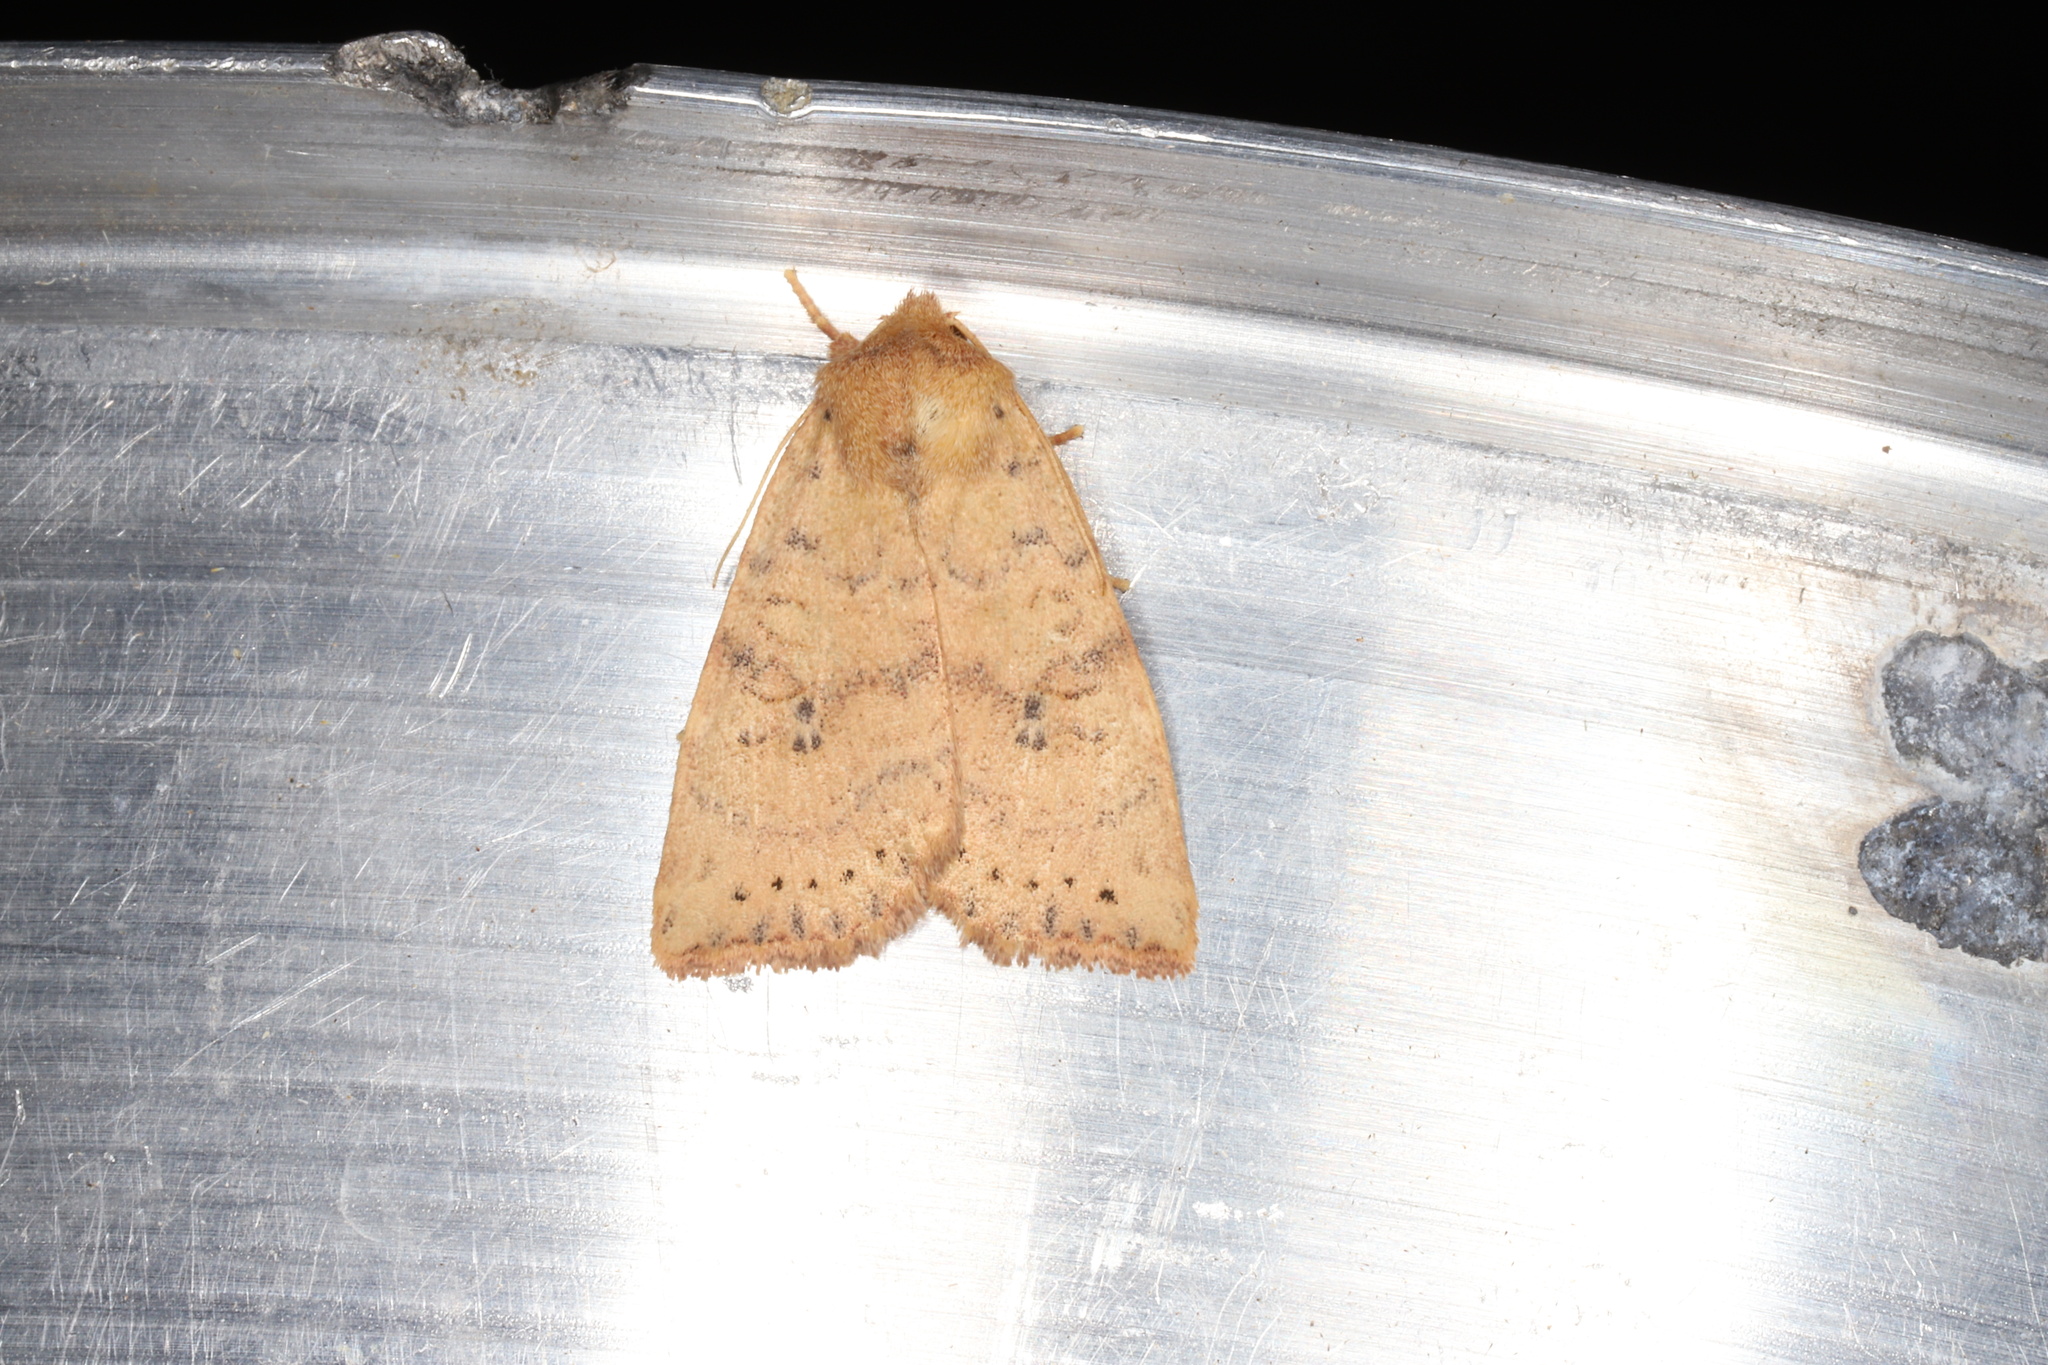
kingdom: Animalia
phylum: Arthropoda
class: Insecta
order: Lepidoptera
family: Noctuidae
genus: Anathix
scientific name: Anathix ralla
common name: Dotted sallow
